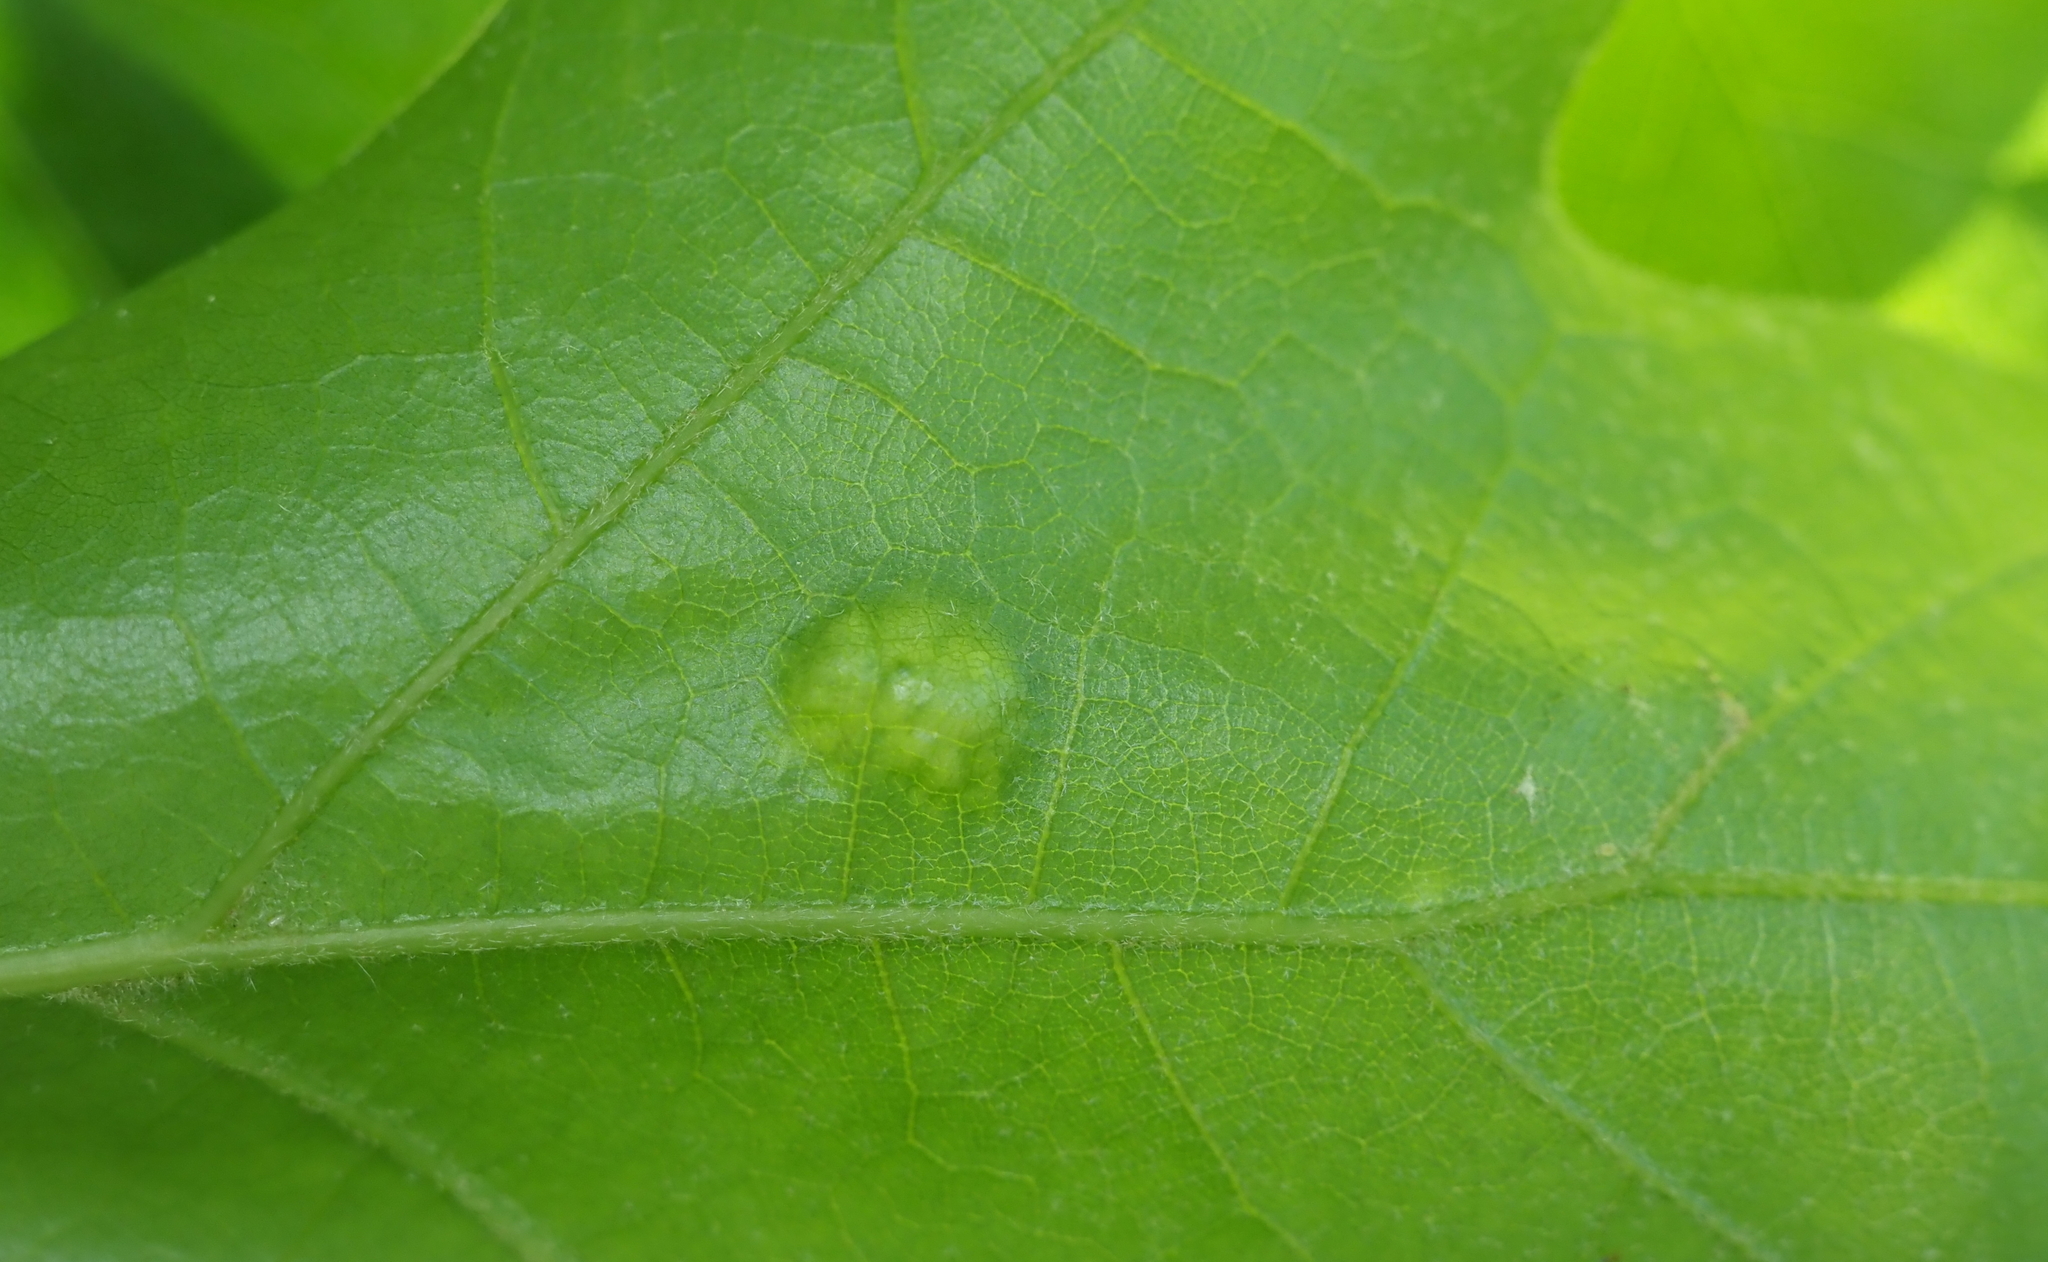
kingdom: Fungi
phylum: Ascomycota
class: Taphrinomycetes
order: Taphrinales
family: Taphrinaceae
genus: Taphrina
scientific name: Taphrina caerulescens
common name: Oak leaf blister
